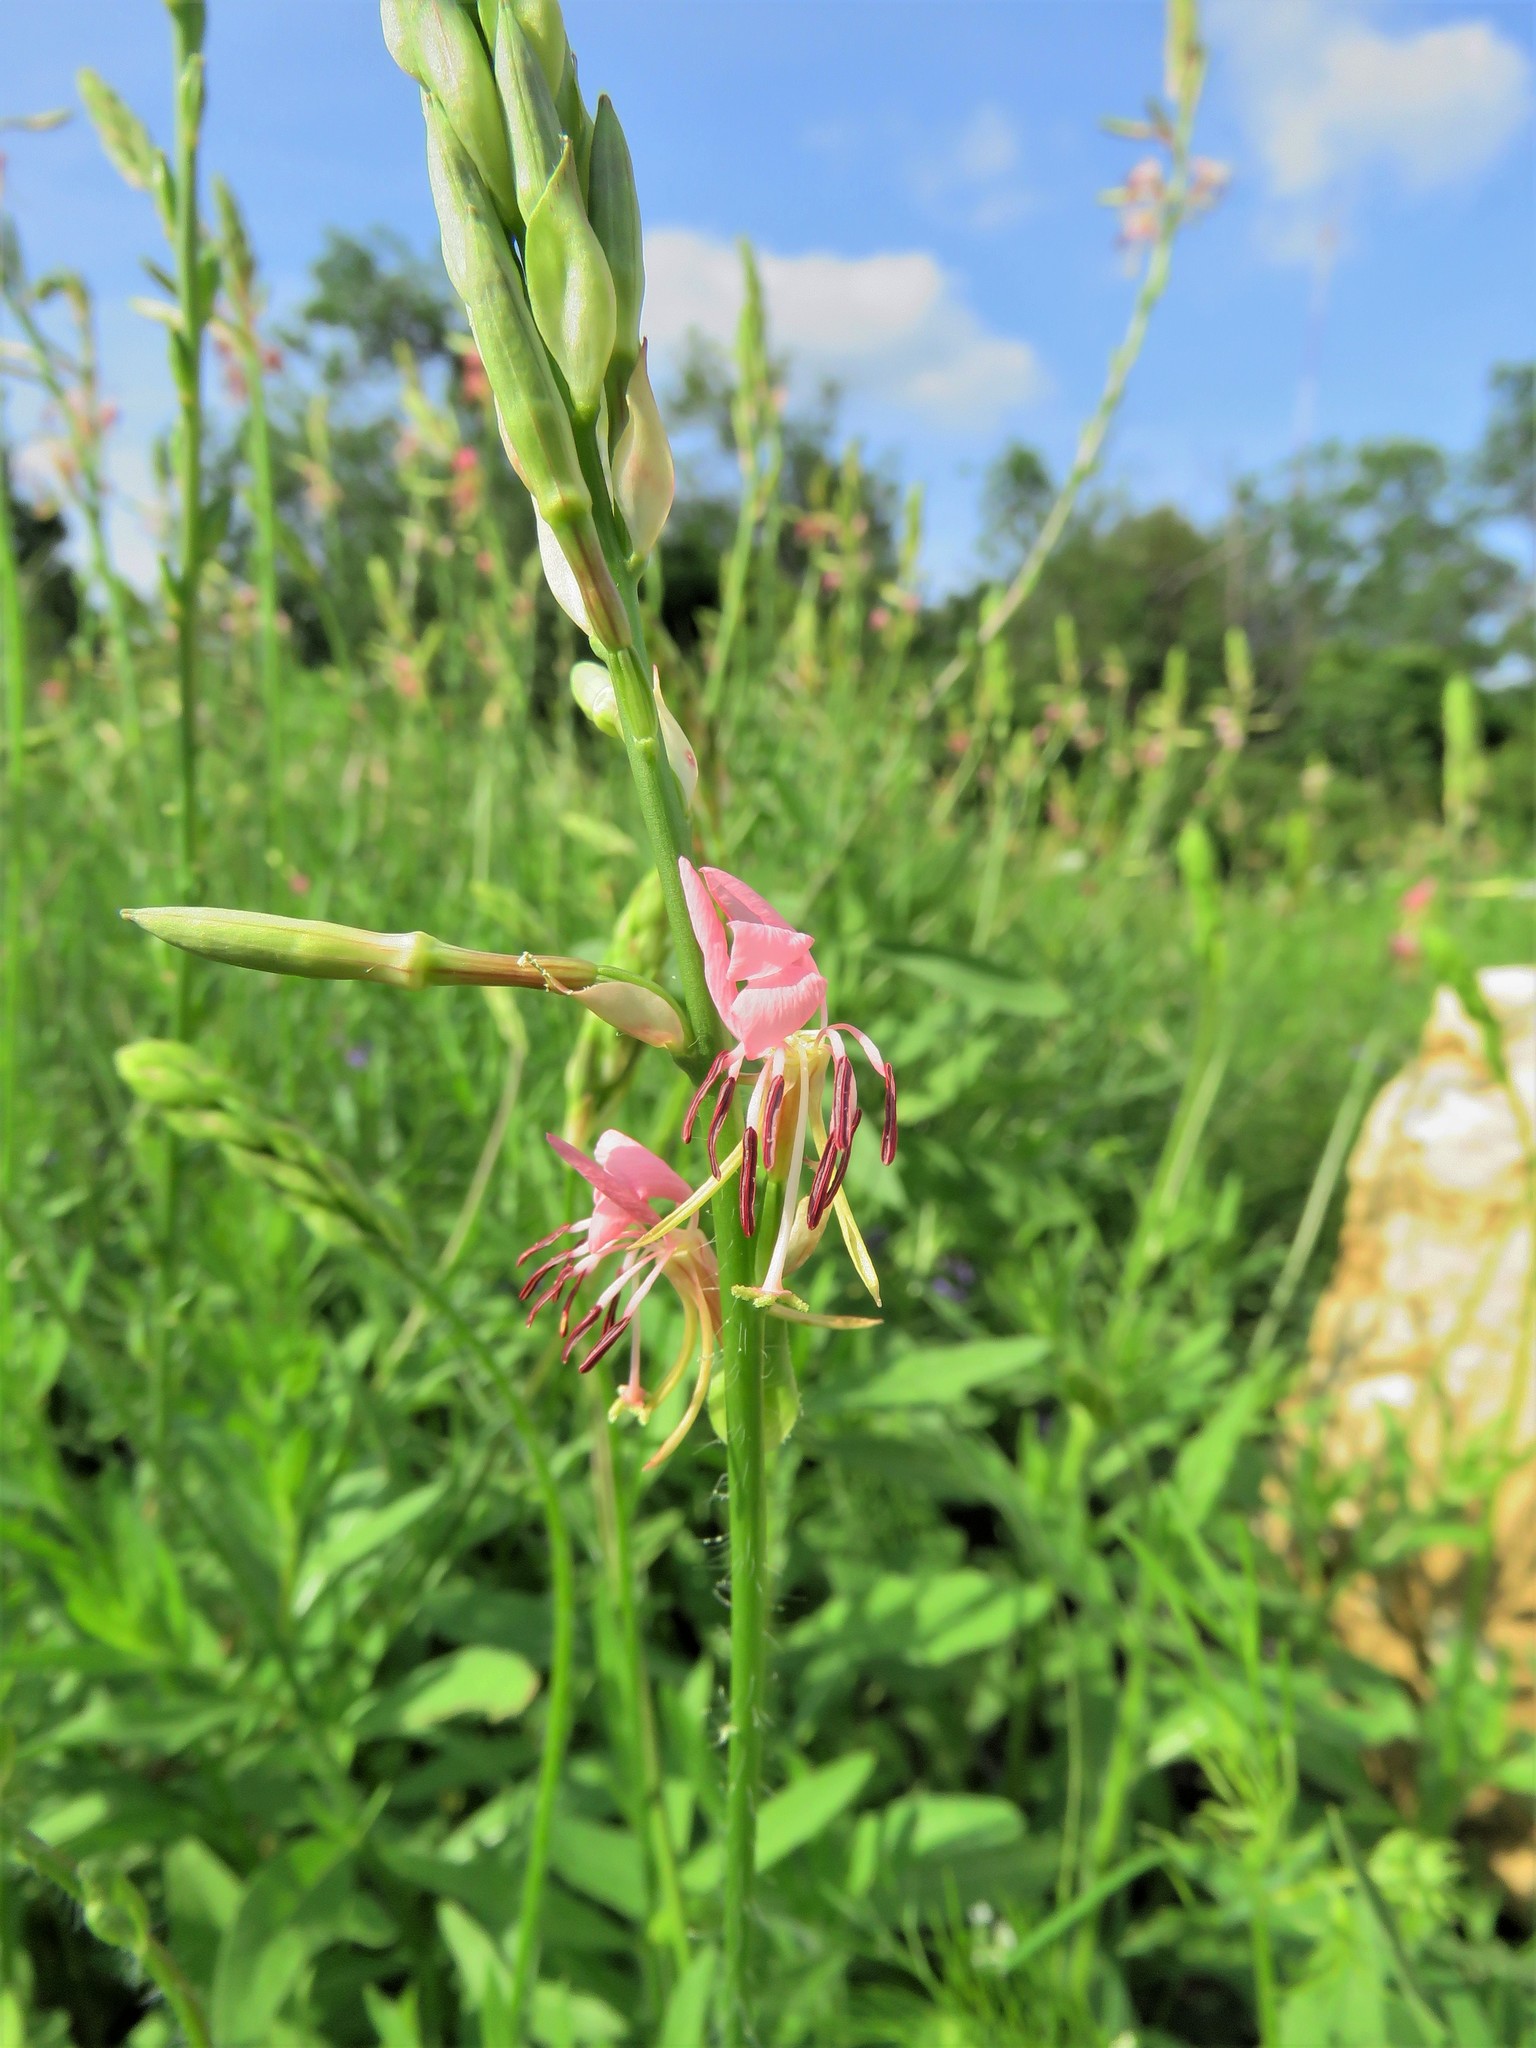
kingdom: Plantae
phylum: Tracheophyta
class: Magnoliopsida
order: Myrtales
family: Onagraceae
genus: Oenothera
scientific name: Oenothera suffulta
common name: Kisses
